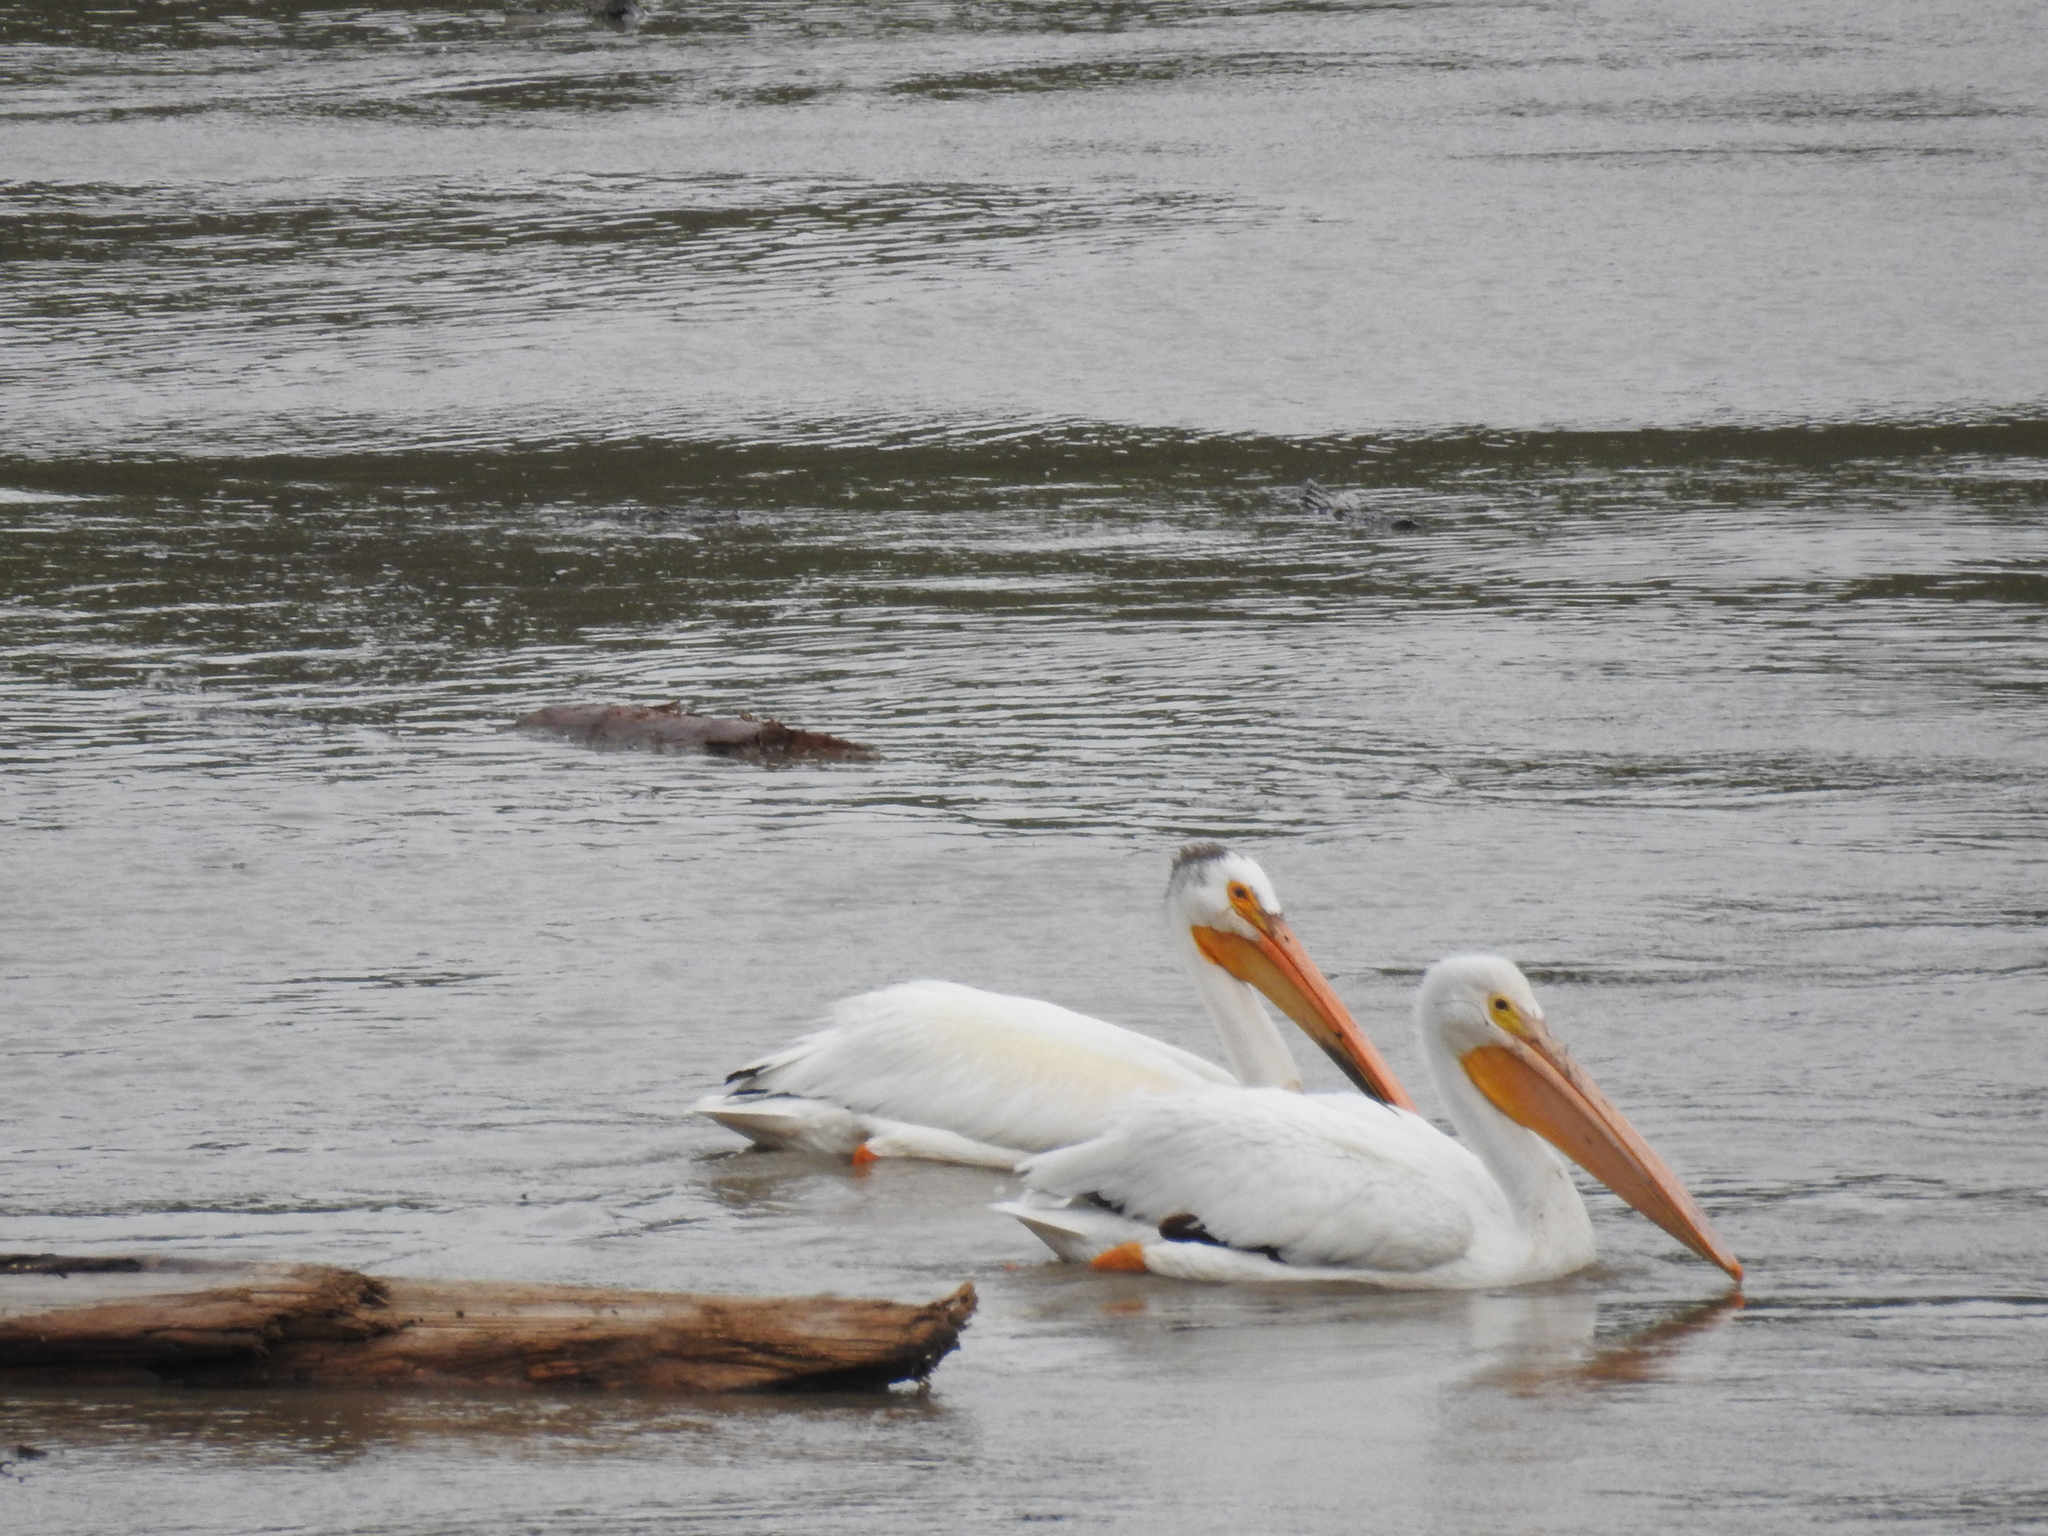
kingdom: Animalia
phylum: Chordata
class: Aves
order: Pelecaniformes
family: Pelecanidae
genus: Pelecanus
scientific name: Pelecanus erythrorhynchos
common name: American white pelican
